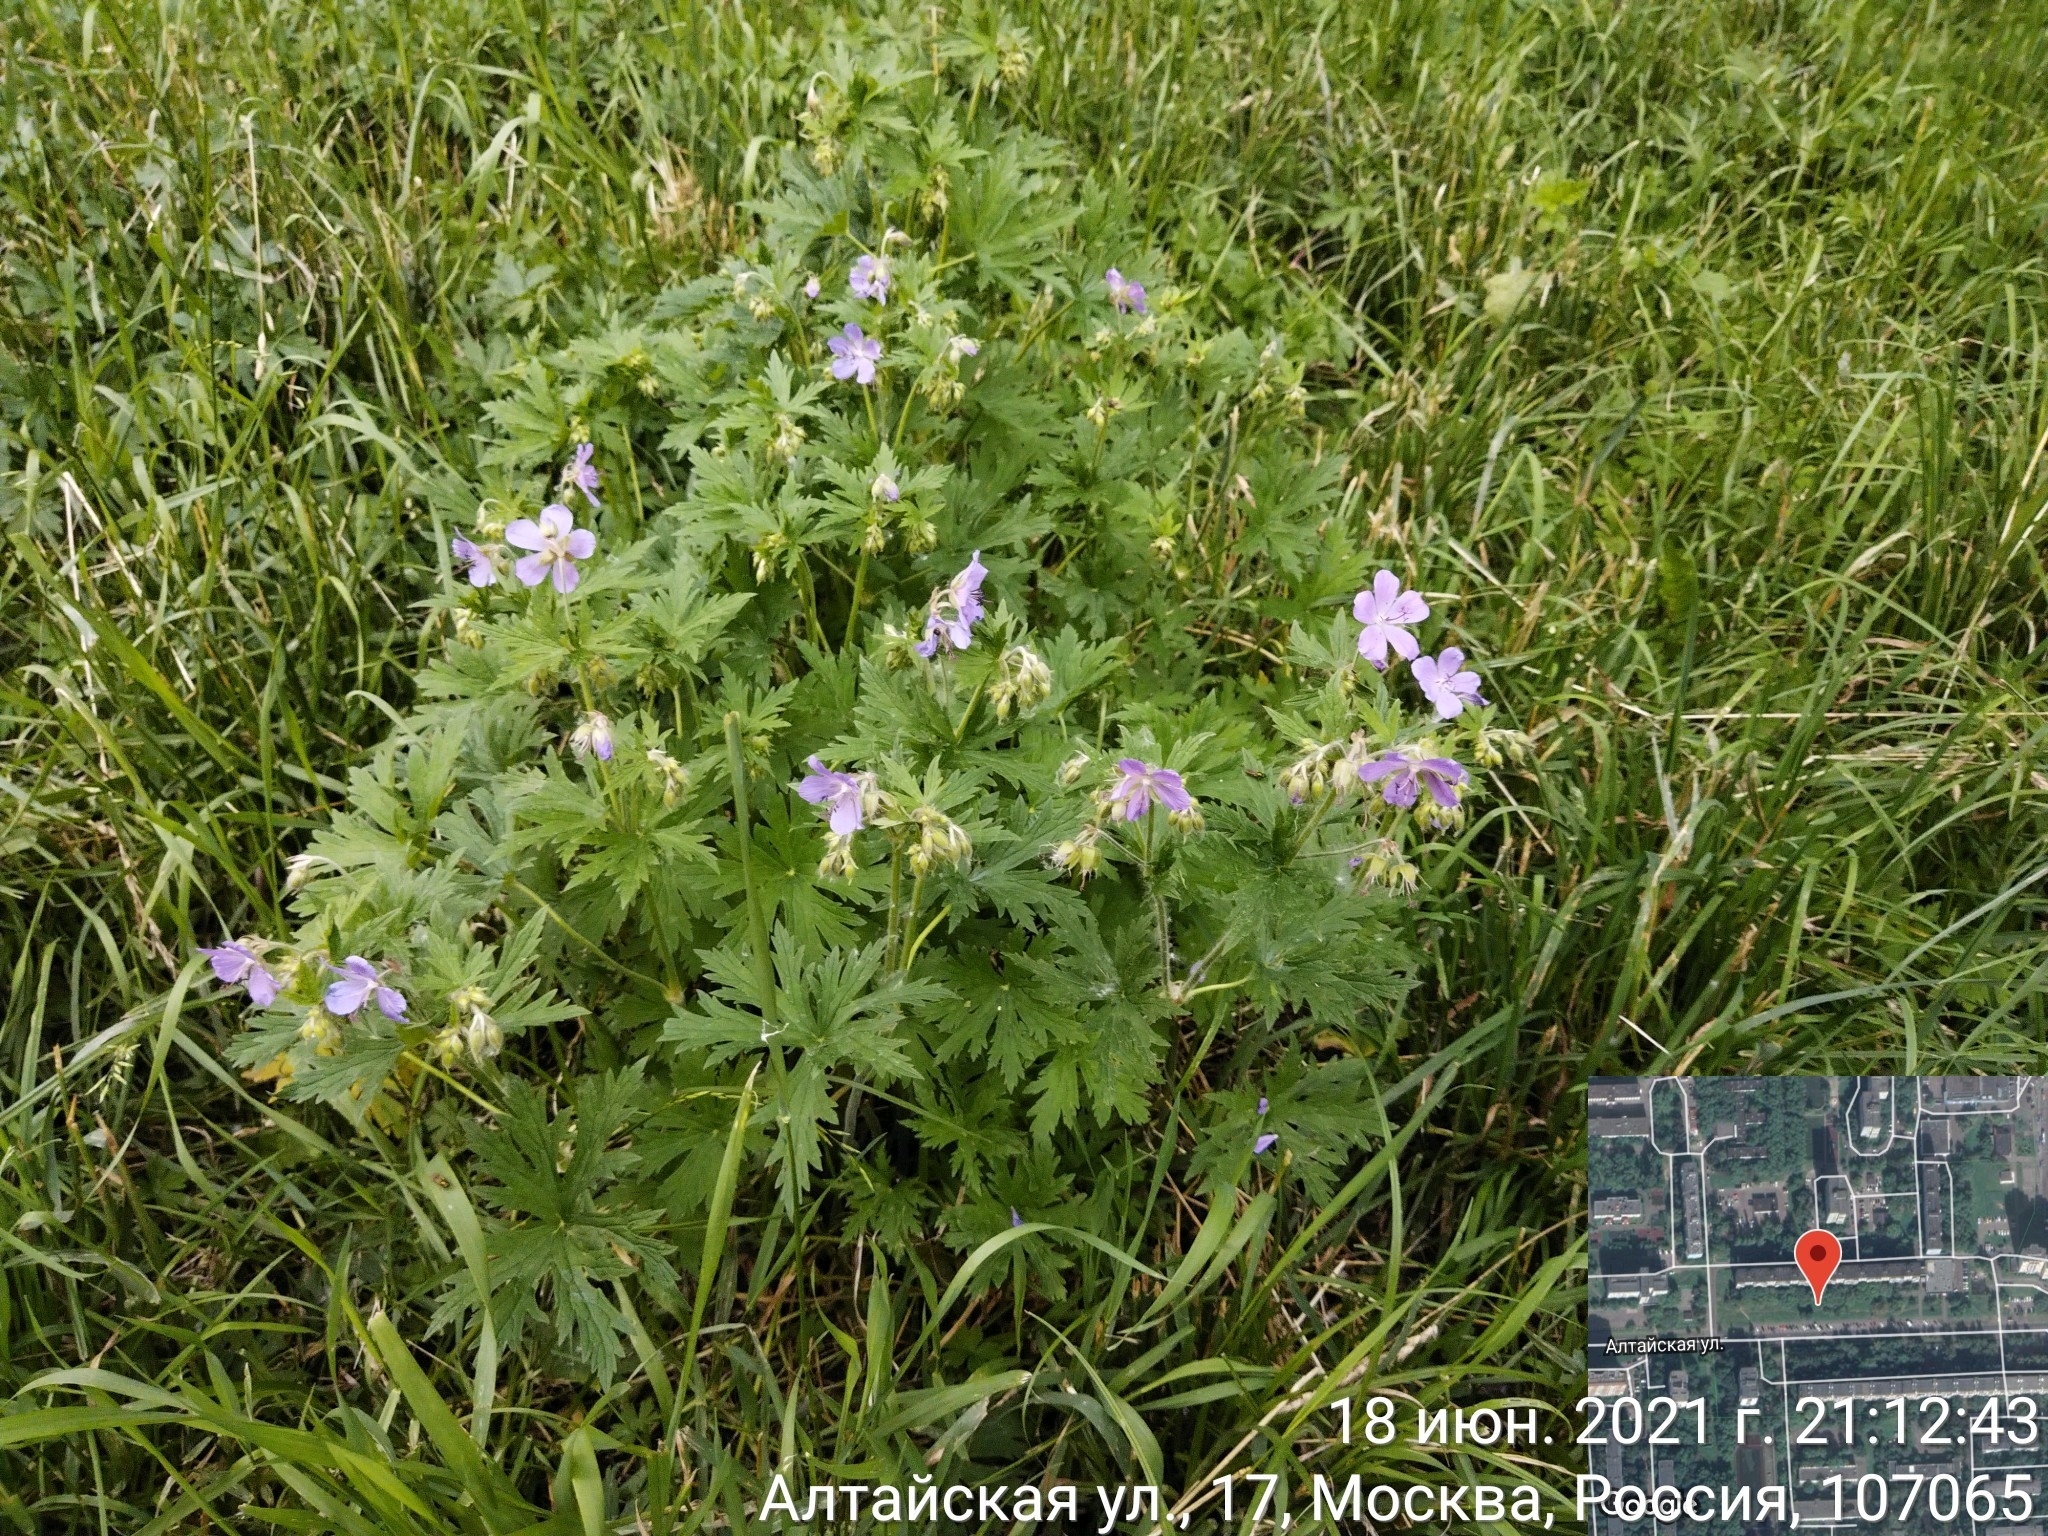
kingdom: Plantae
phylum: Tracheophyta
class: Magnoliopsida
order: Geraniales
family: Geraniaceae
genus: Geranium
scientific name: Geranium pratense
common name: Meadow crane's-bill
